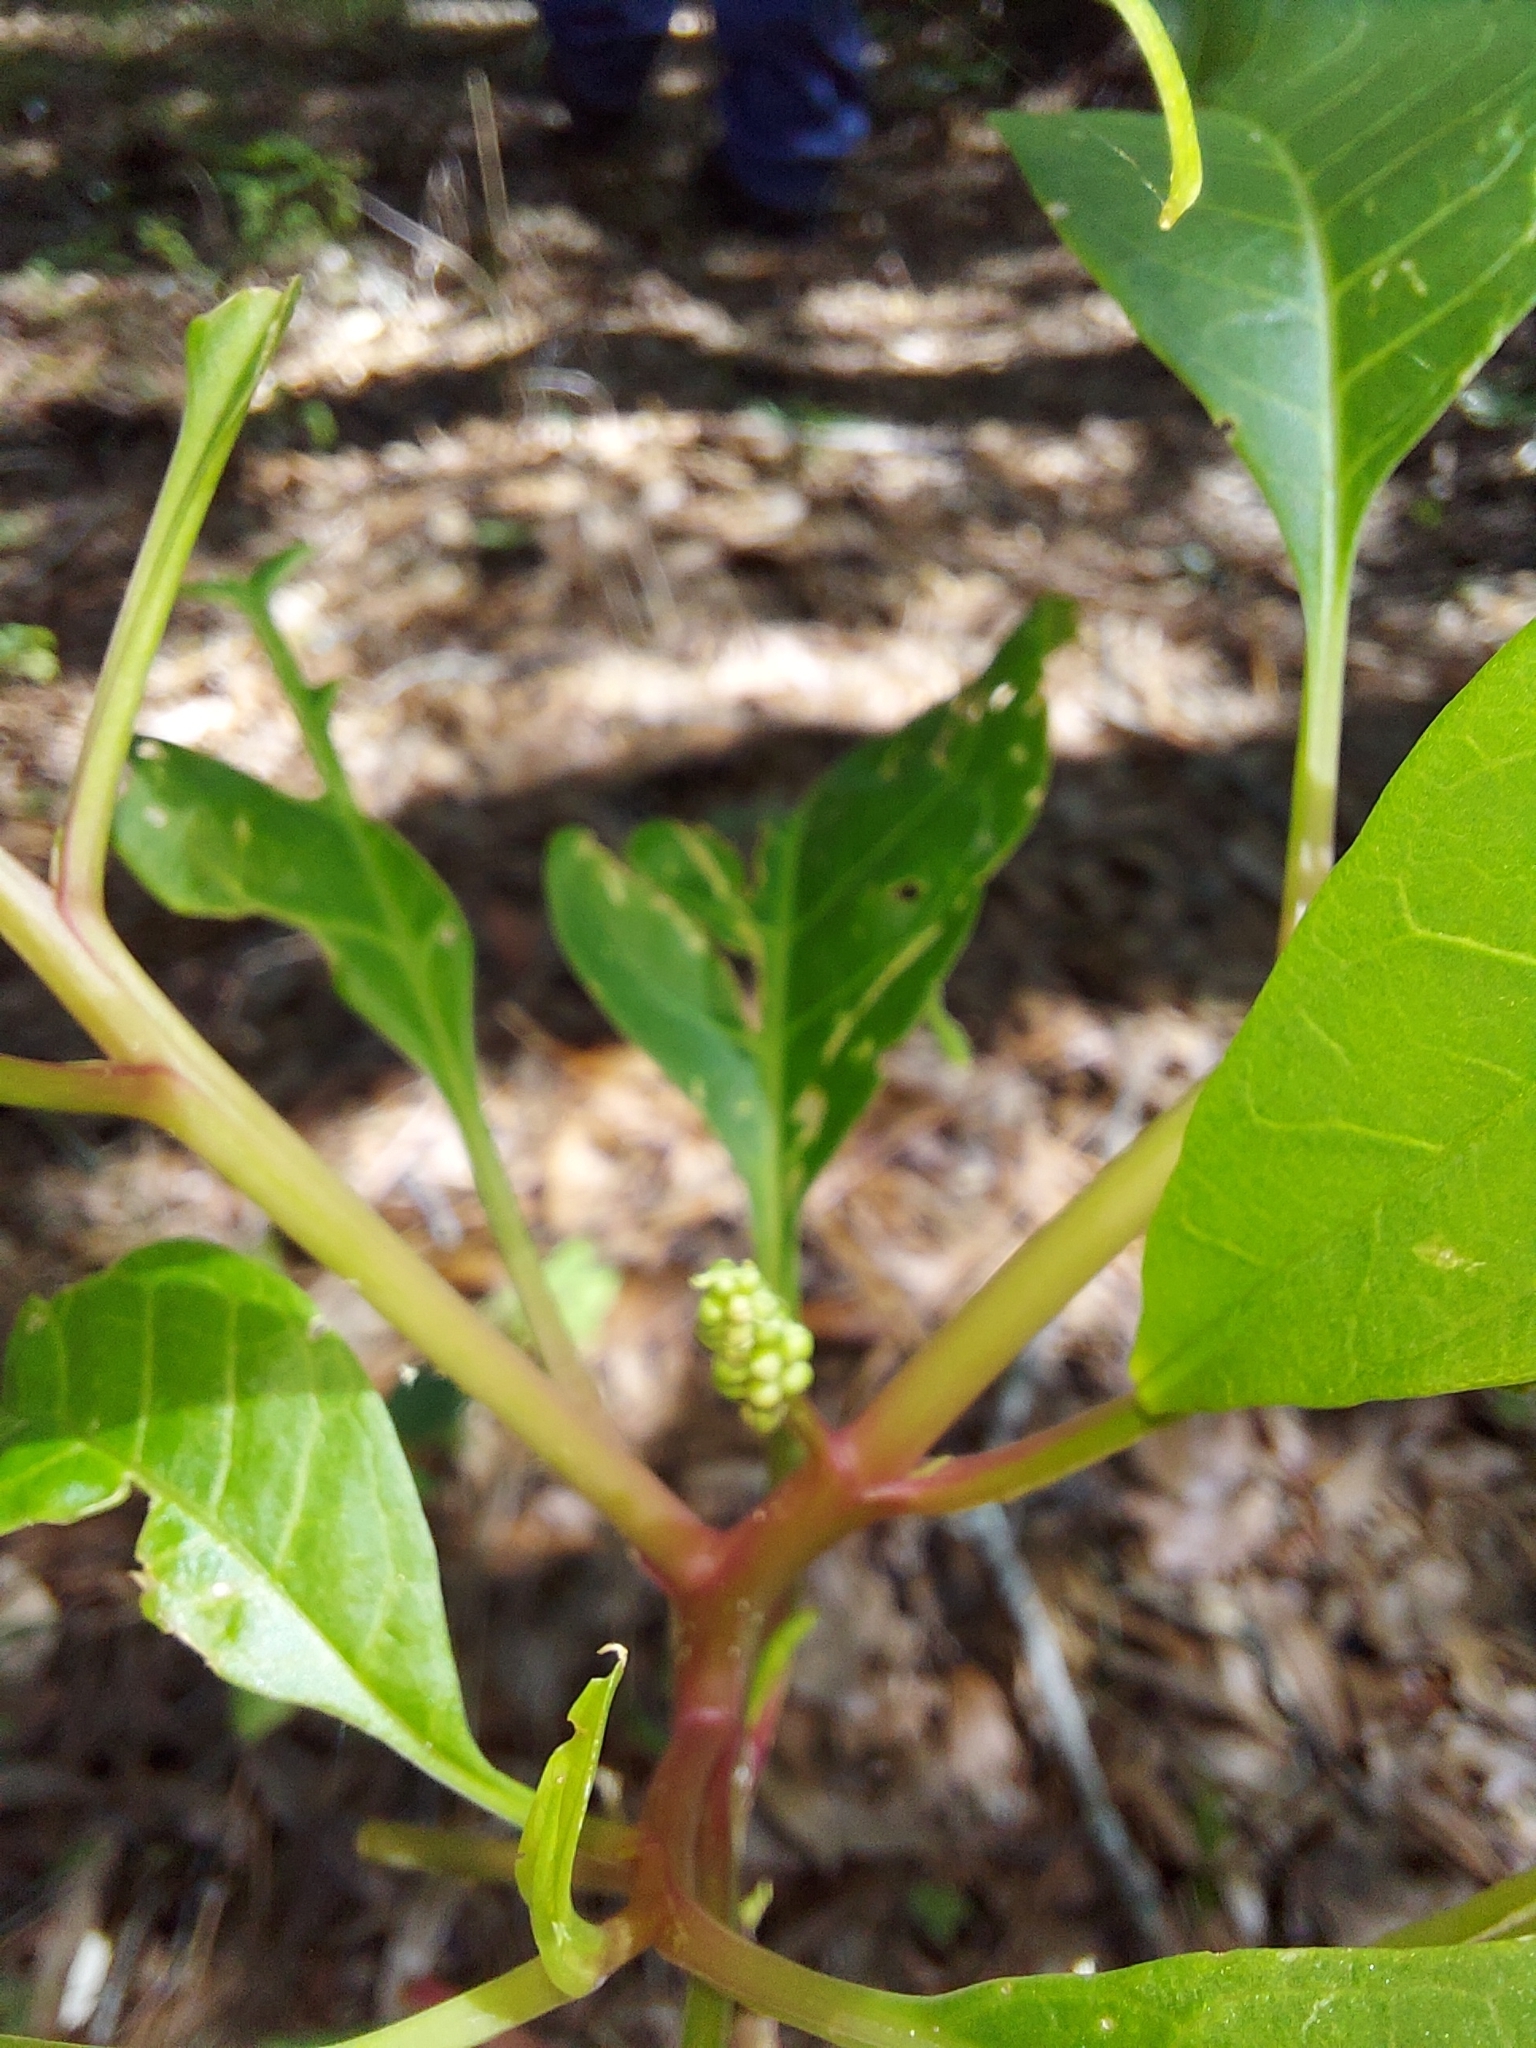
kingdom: Plantae
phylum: Tracheophyta
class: Magnoliopsida
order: Caryophyllales
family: Phytolaccaceae
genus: Phytolacca
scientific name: Phytolacca americana
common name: American pokeweed
